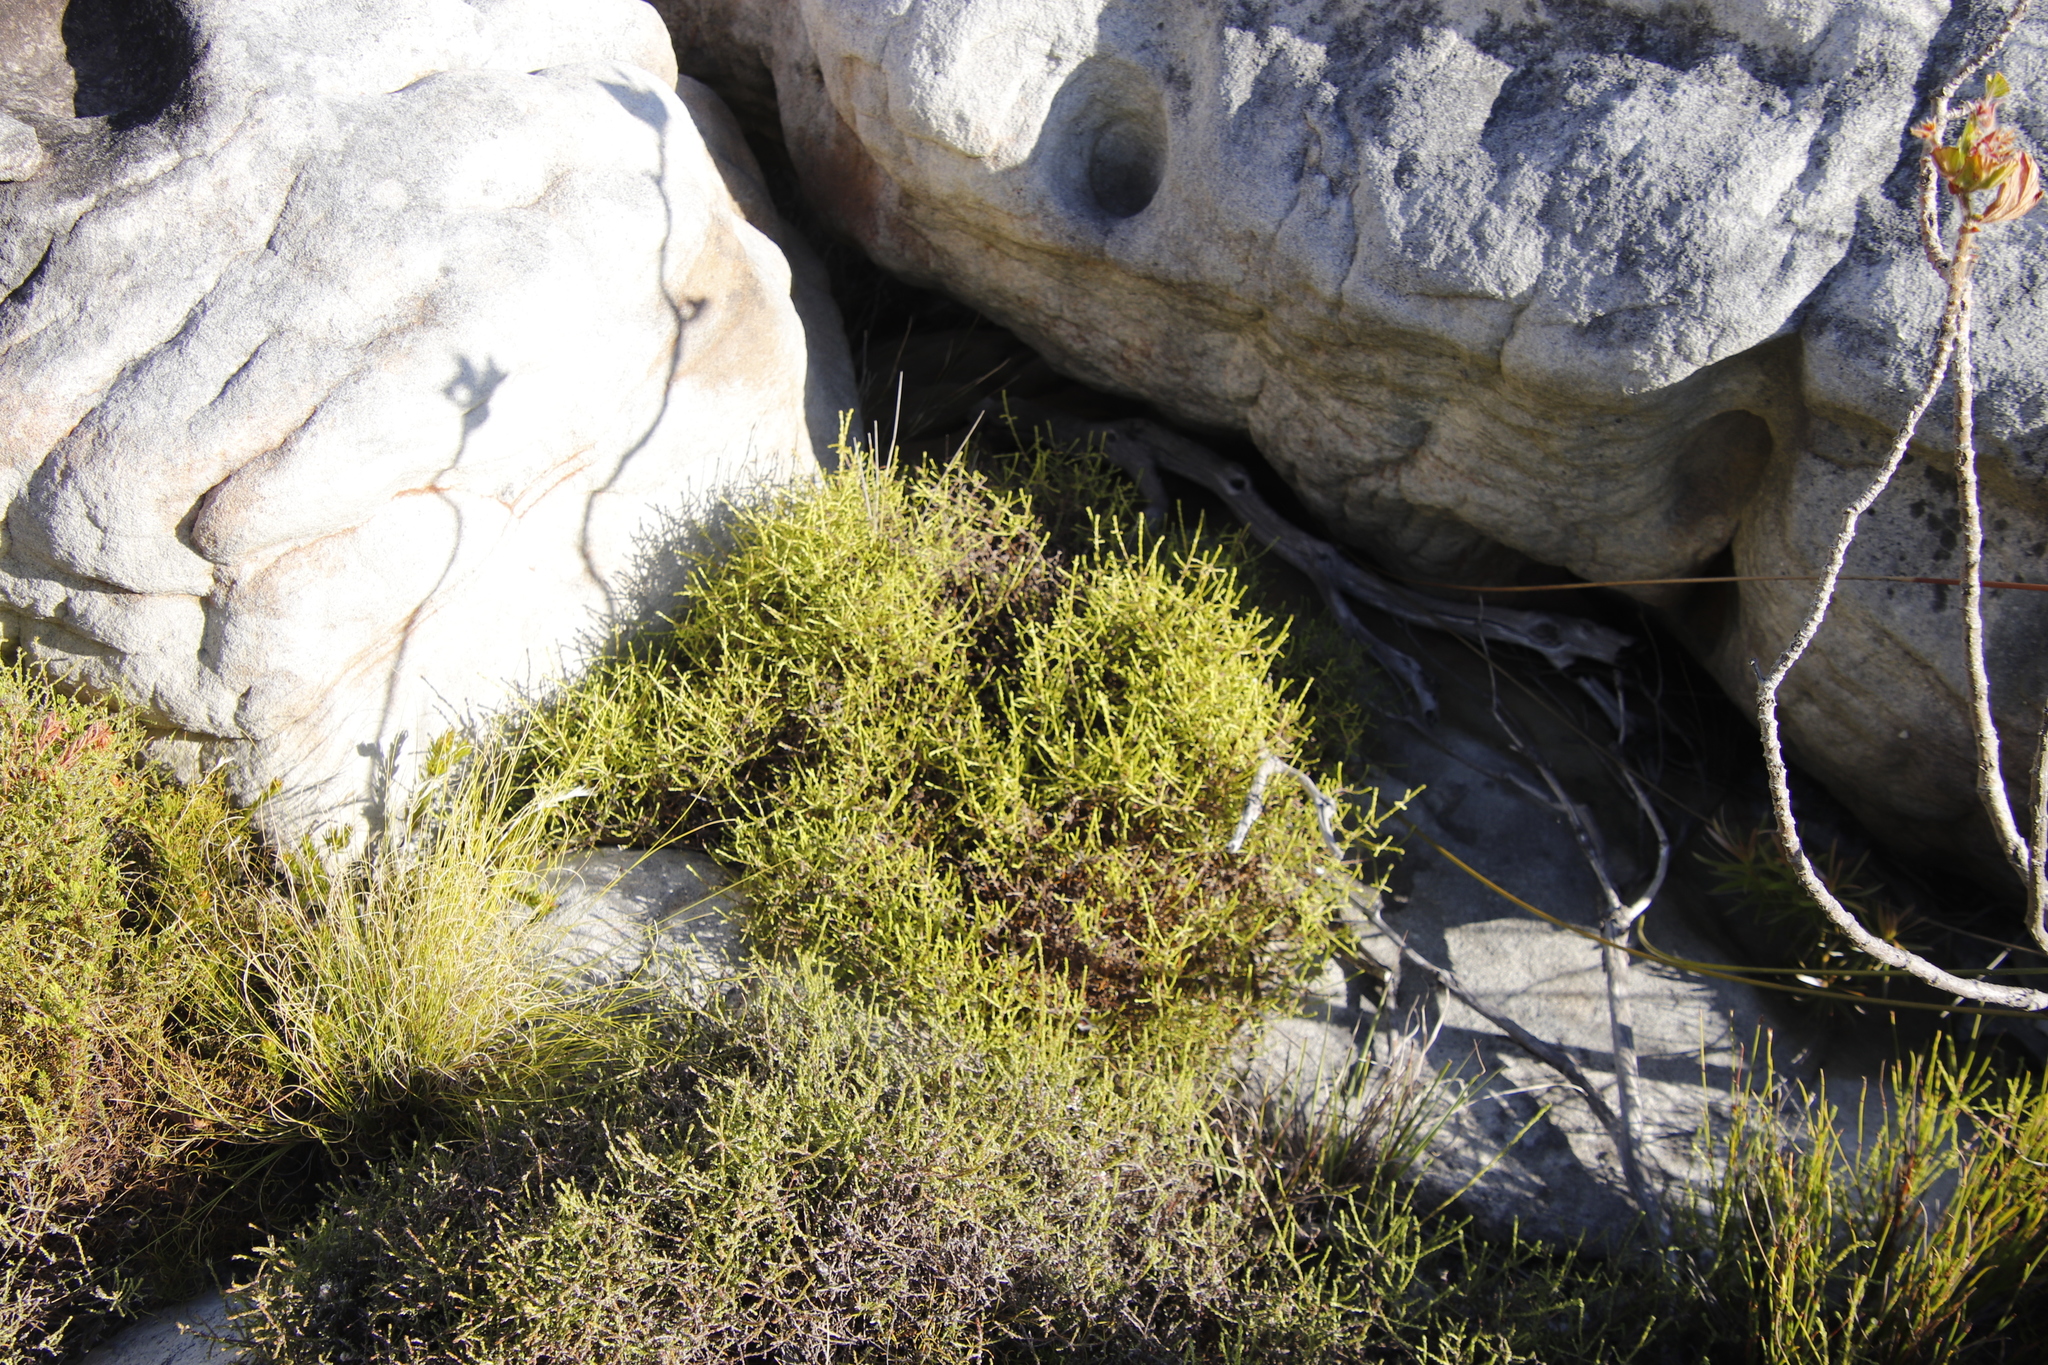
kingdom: Plantae
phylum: Tracheophyta
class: Magnoliopsida
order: Asterales
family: Asteraceae
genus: Myrovernix
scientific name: Myrovernix scaber
